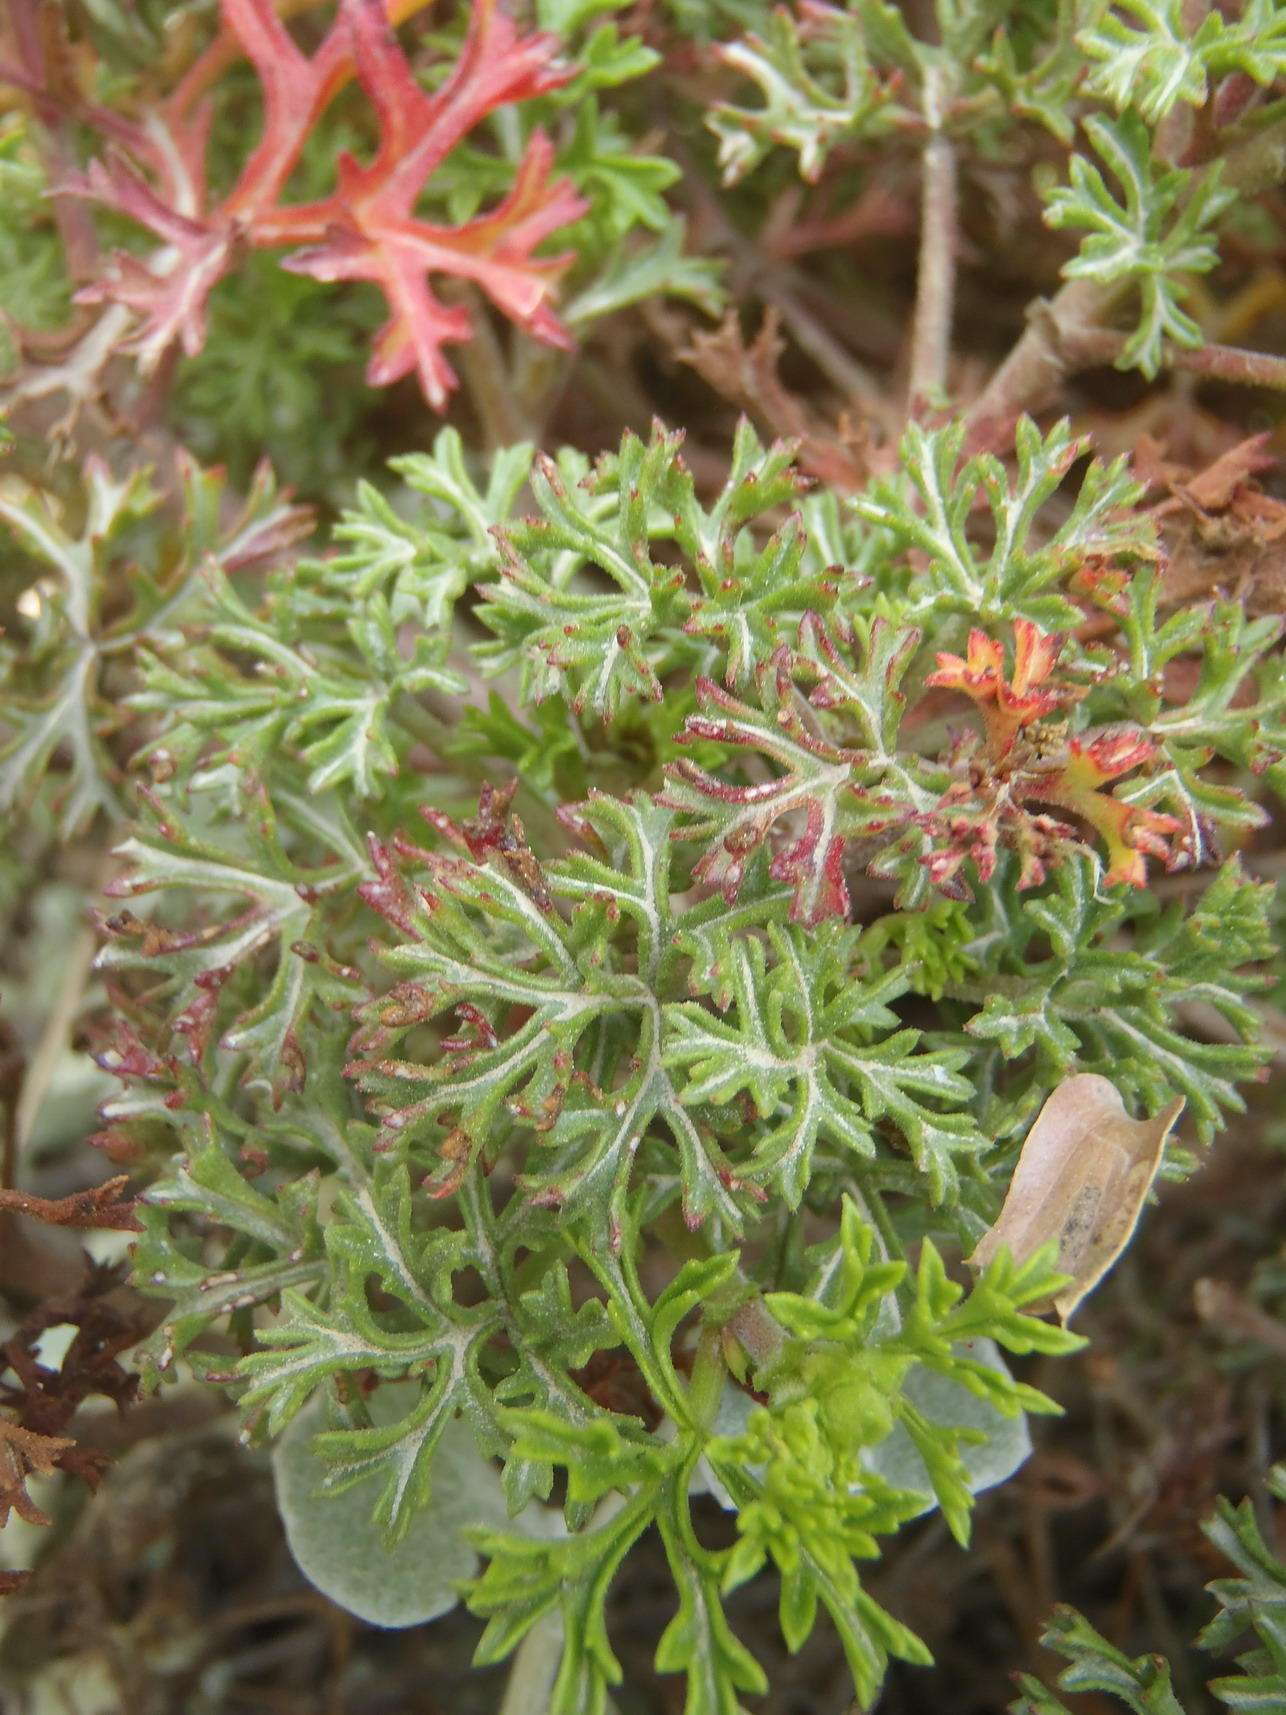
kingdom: Plantae
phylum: Tracheophyta
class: Magnoliopsida
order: Geraniales
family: Geraniaceae
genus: Pelargonium
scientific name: Pelargonium fruticosum
